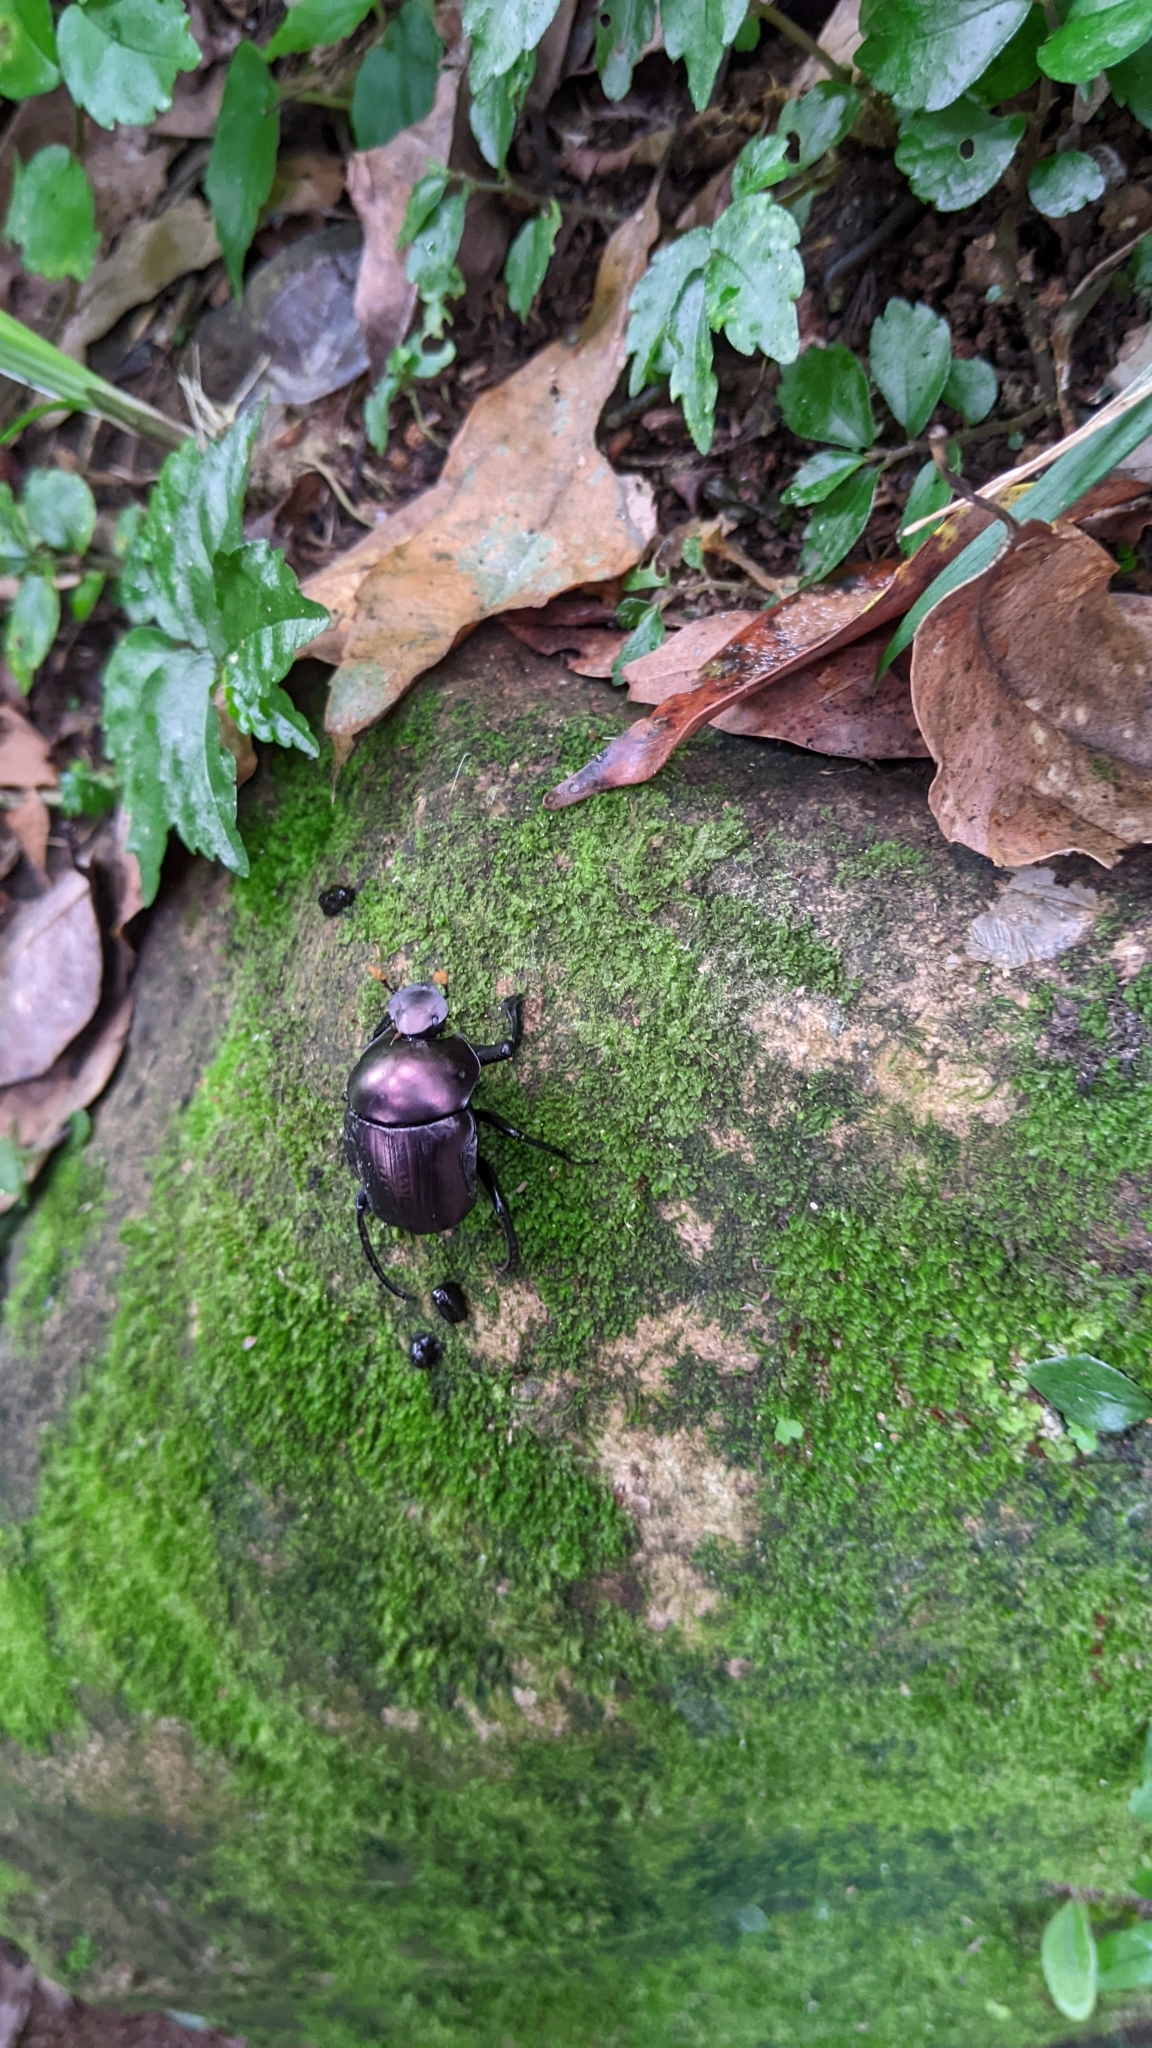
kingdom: Animalia
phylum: Arthropoda
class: Insecta
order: Coleoptera
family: Scarabaeidae
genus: Paragymnopleurus
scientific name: Paragymnopleurus ambiguus
